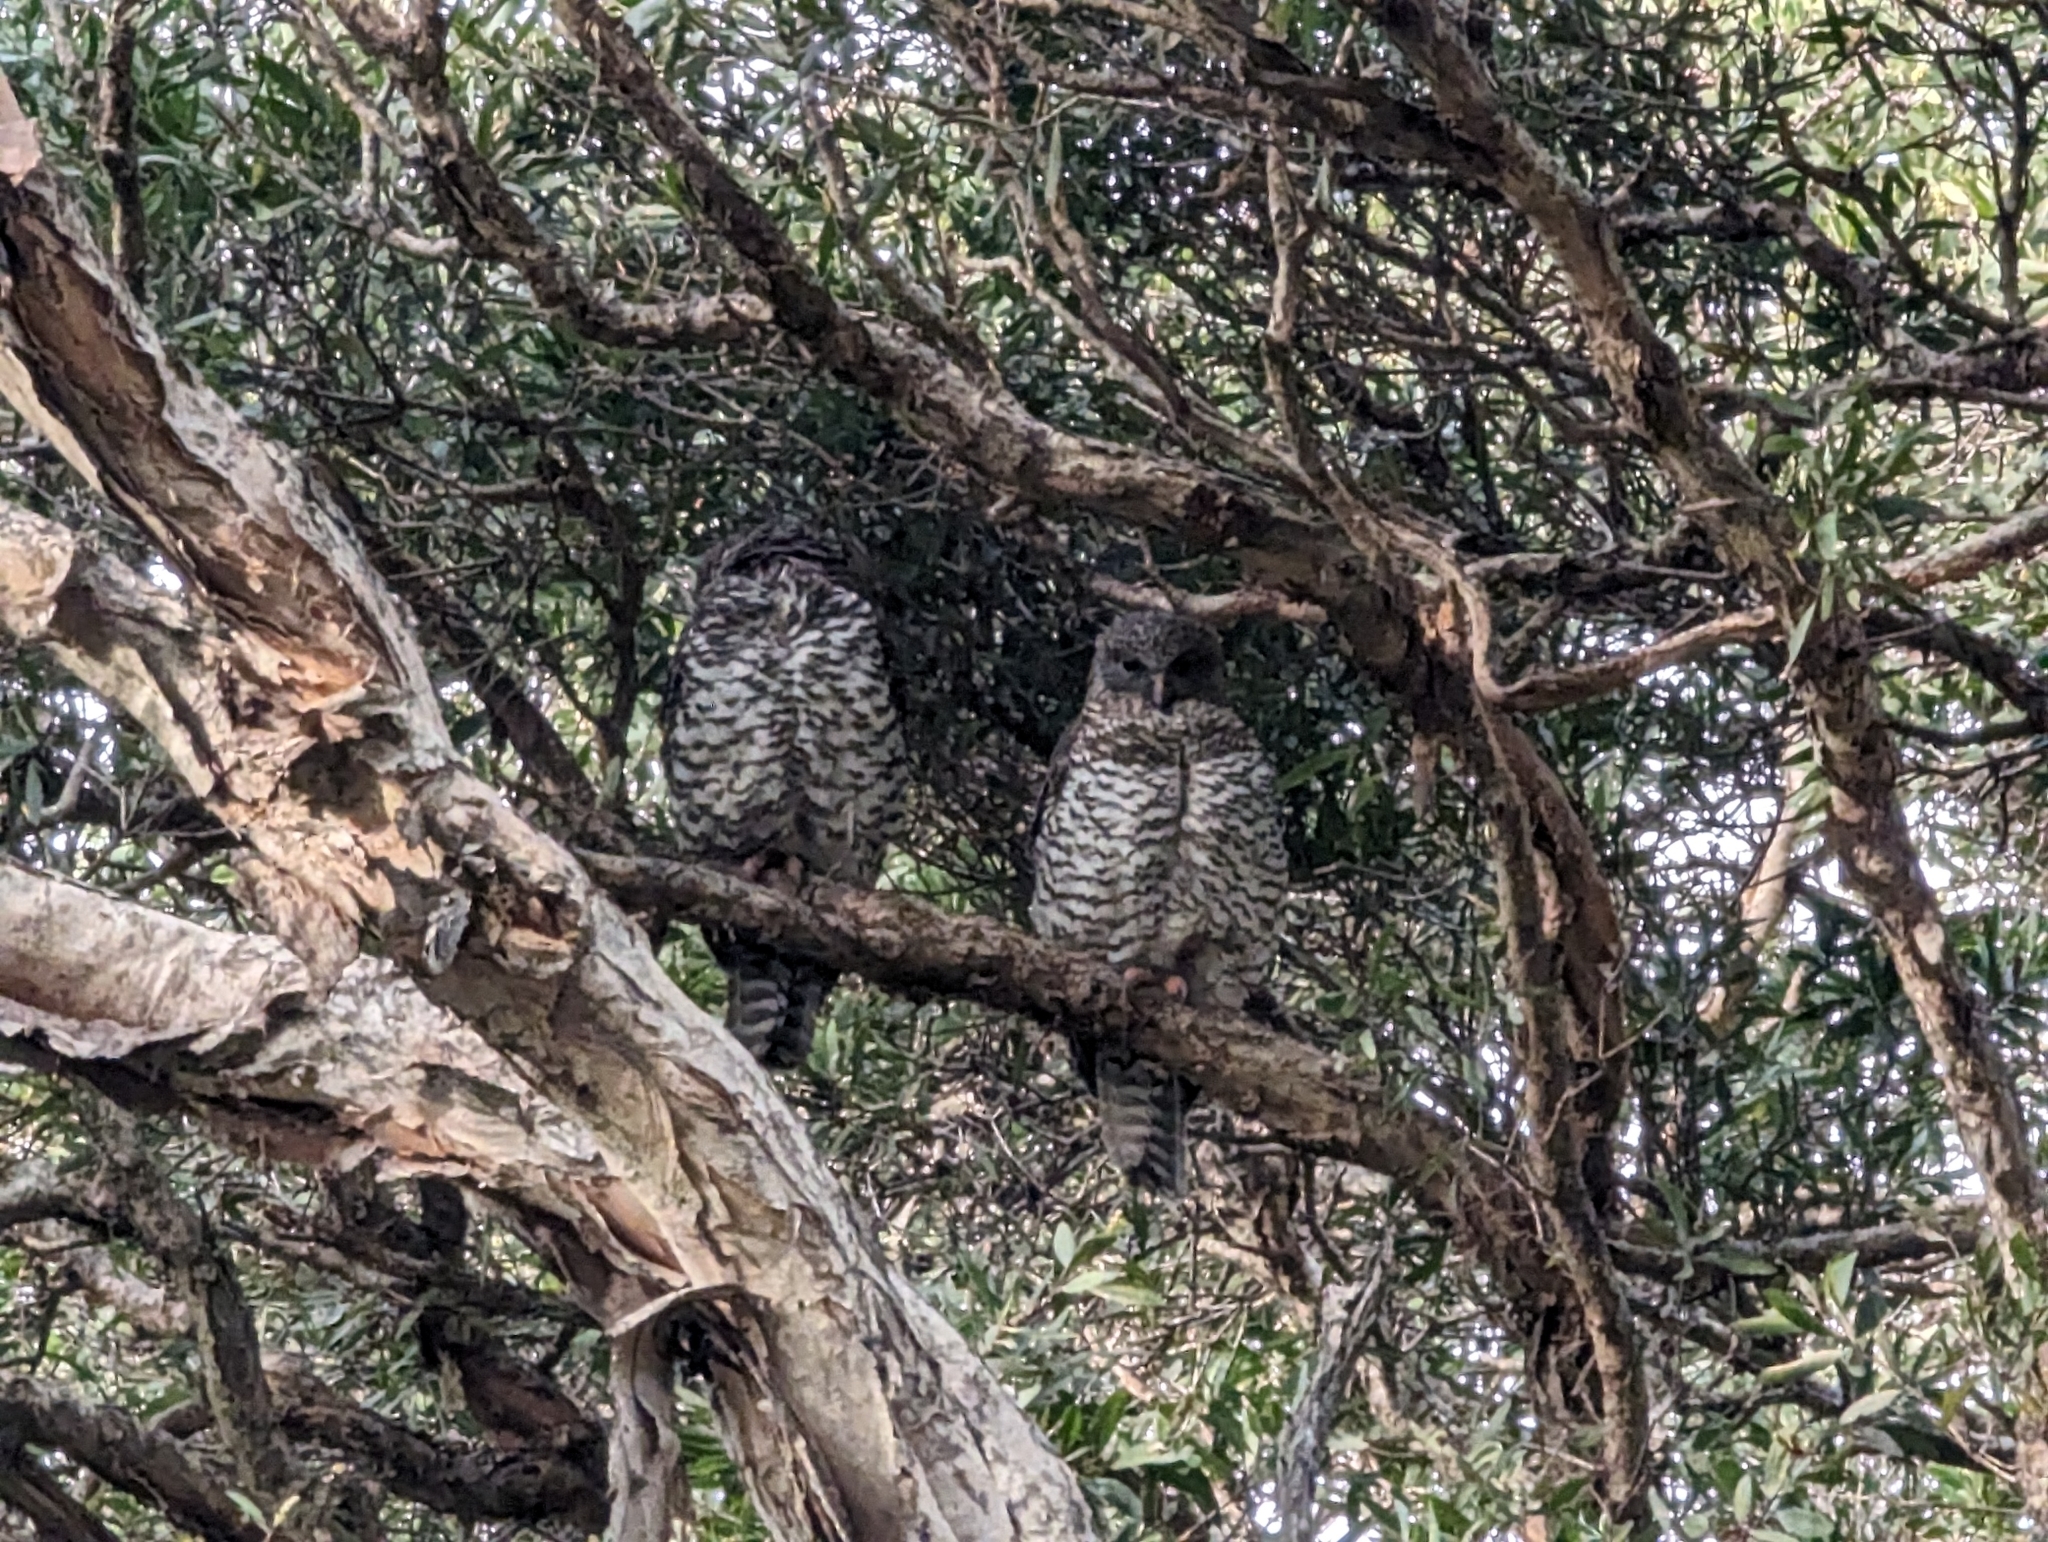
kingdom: Animalia
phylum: Chordata
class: Aves
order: Strigiformes
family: Strigidae
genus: Ninox
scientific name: Ninox strenua
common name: Powerful owl
